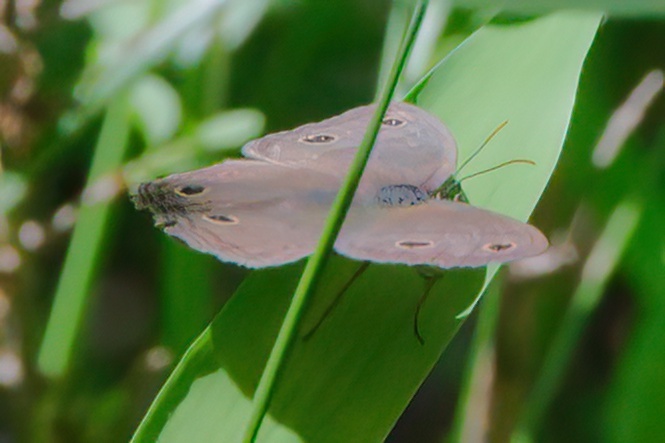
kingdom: Animalia
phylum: Arthropoda
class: Insecta
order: Lepidoptera
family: Nymphalidae
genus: Euptychia
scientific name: Euptychia cymela
